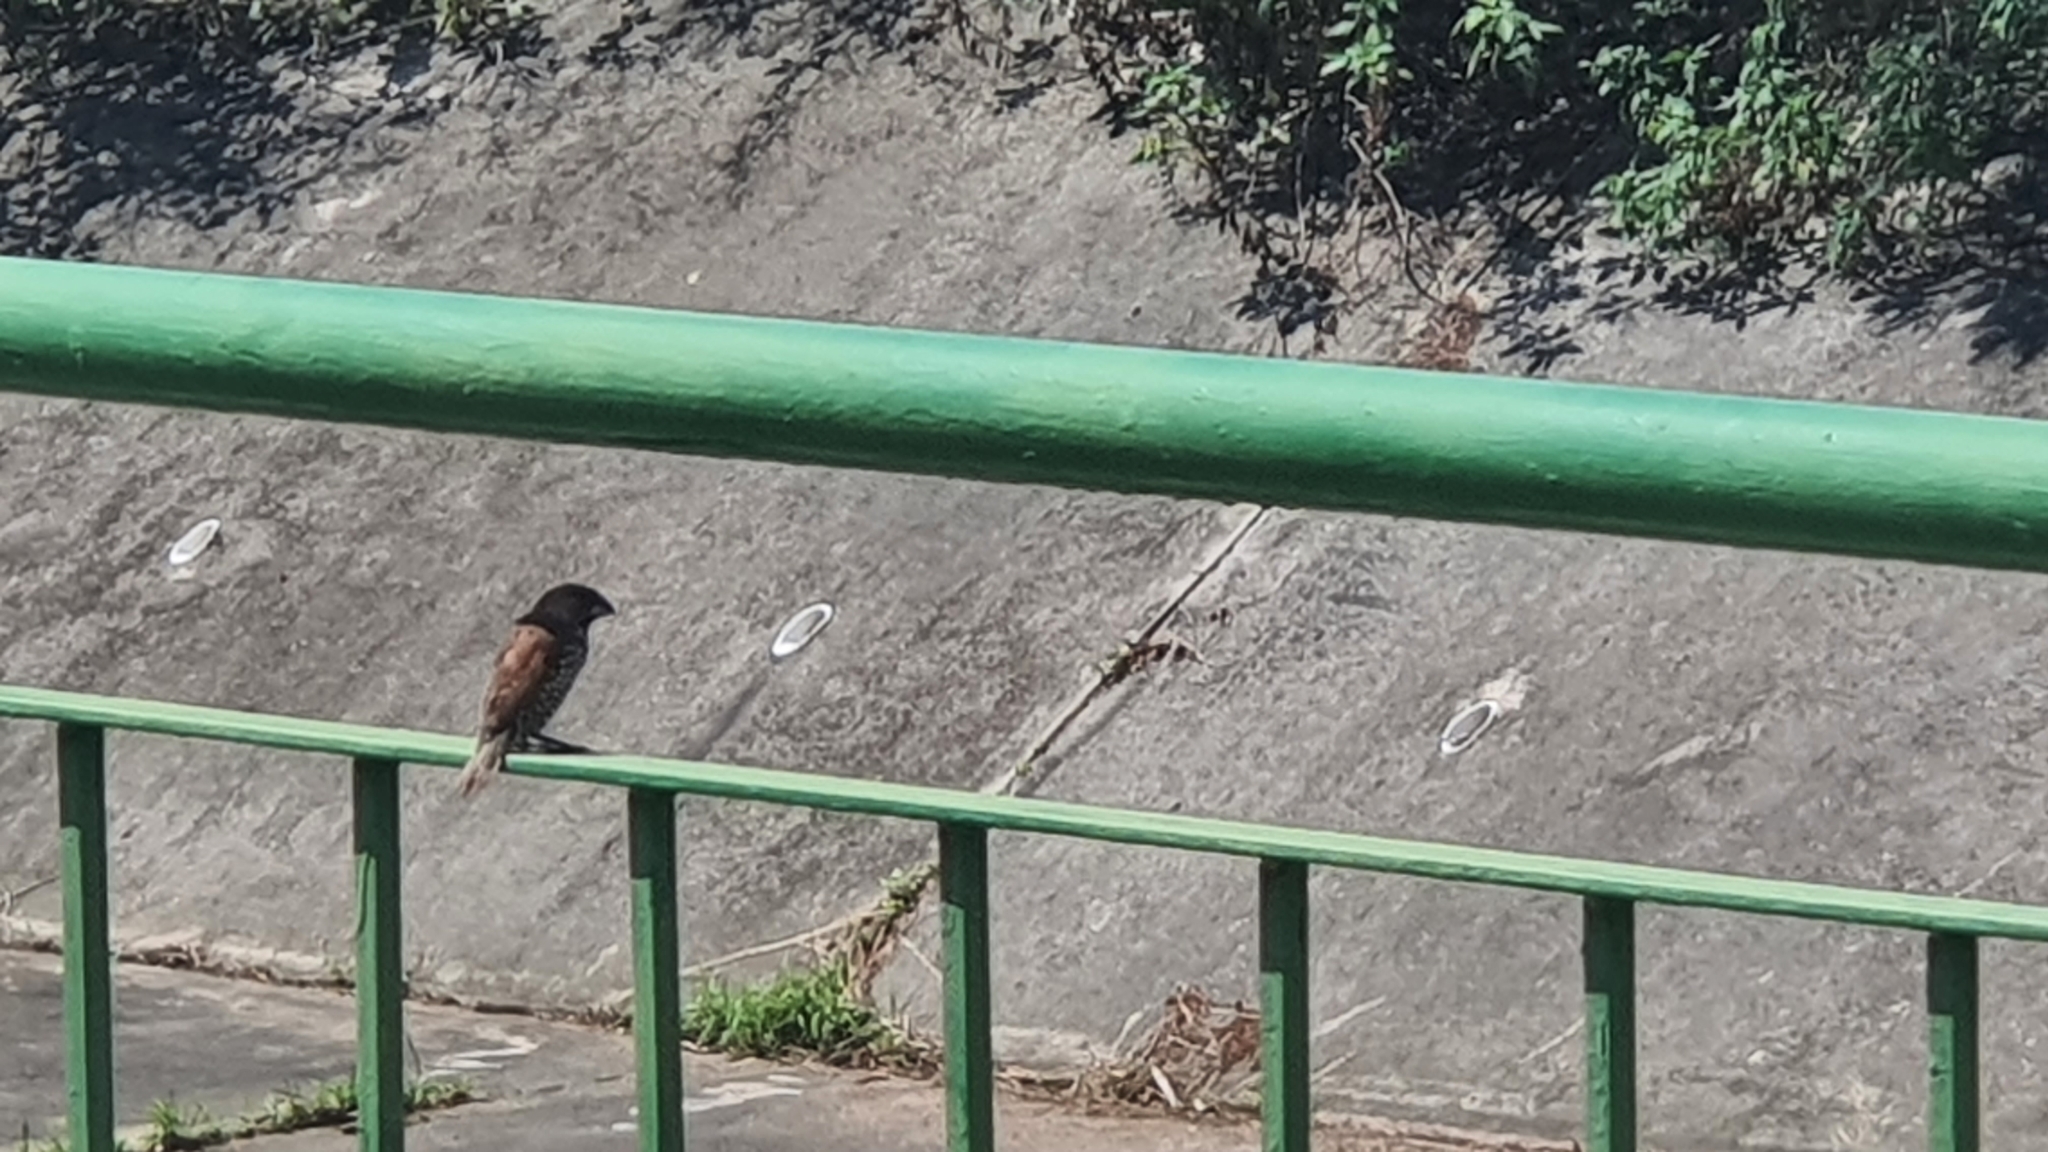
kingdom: Animalia
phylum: Chordata
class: Aves
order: Passeriformes
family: Estrildidae
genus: Lonchura
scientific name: Lonchura punctulata
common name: Scaly-breasted munia
